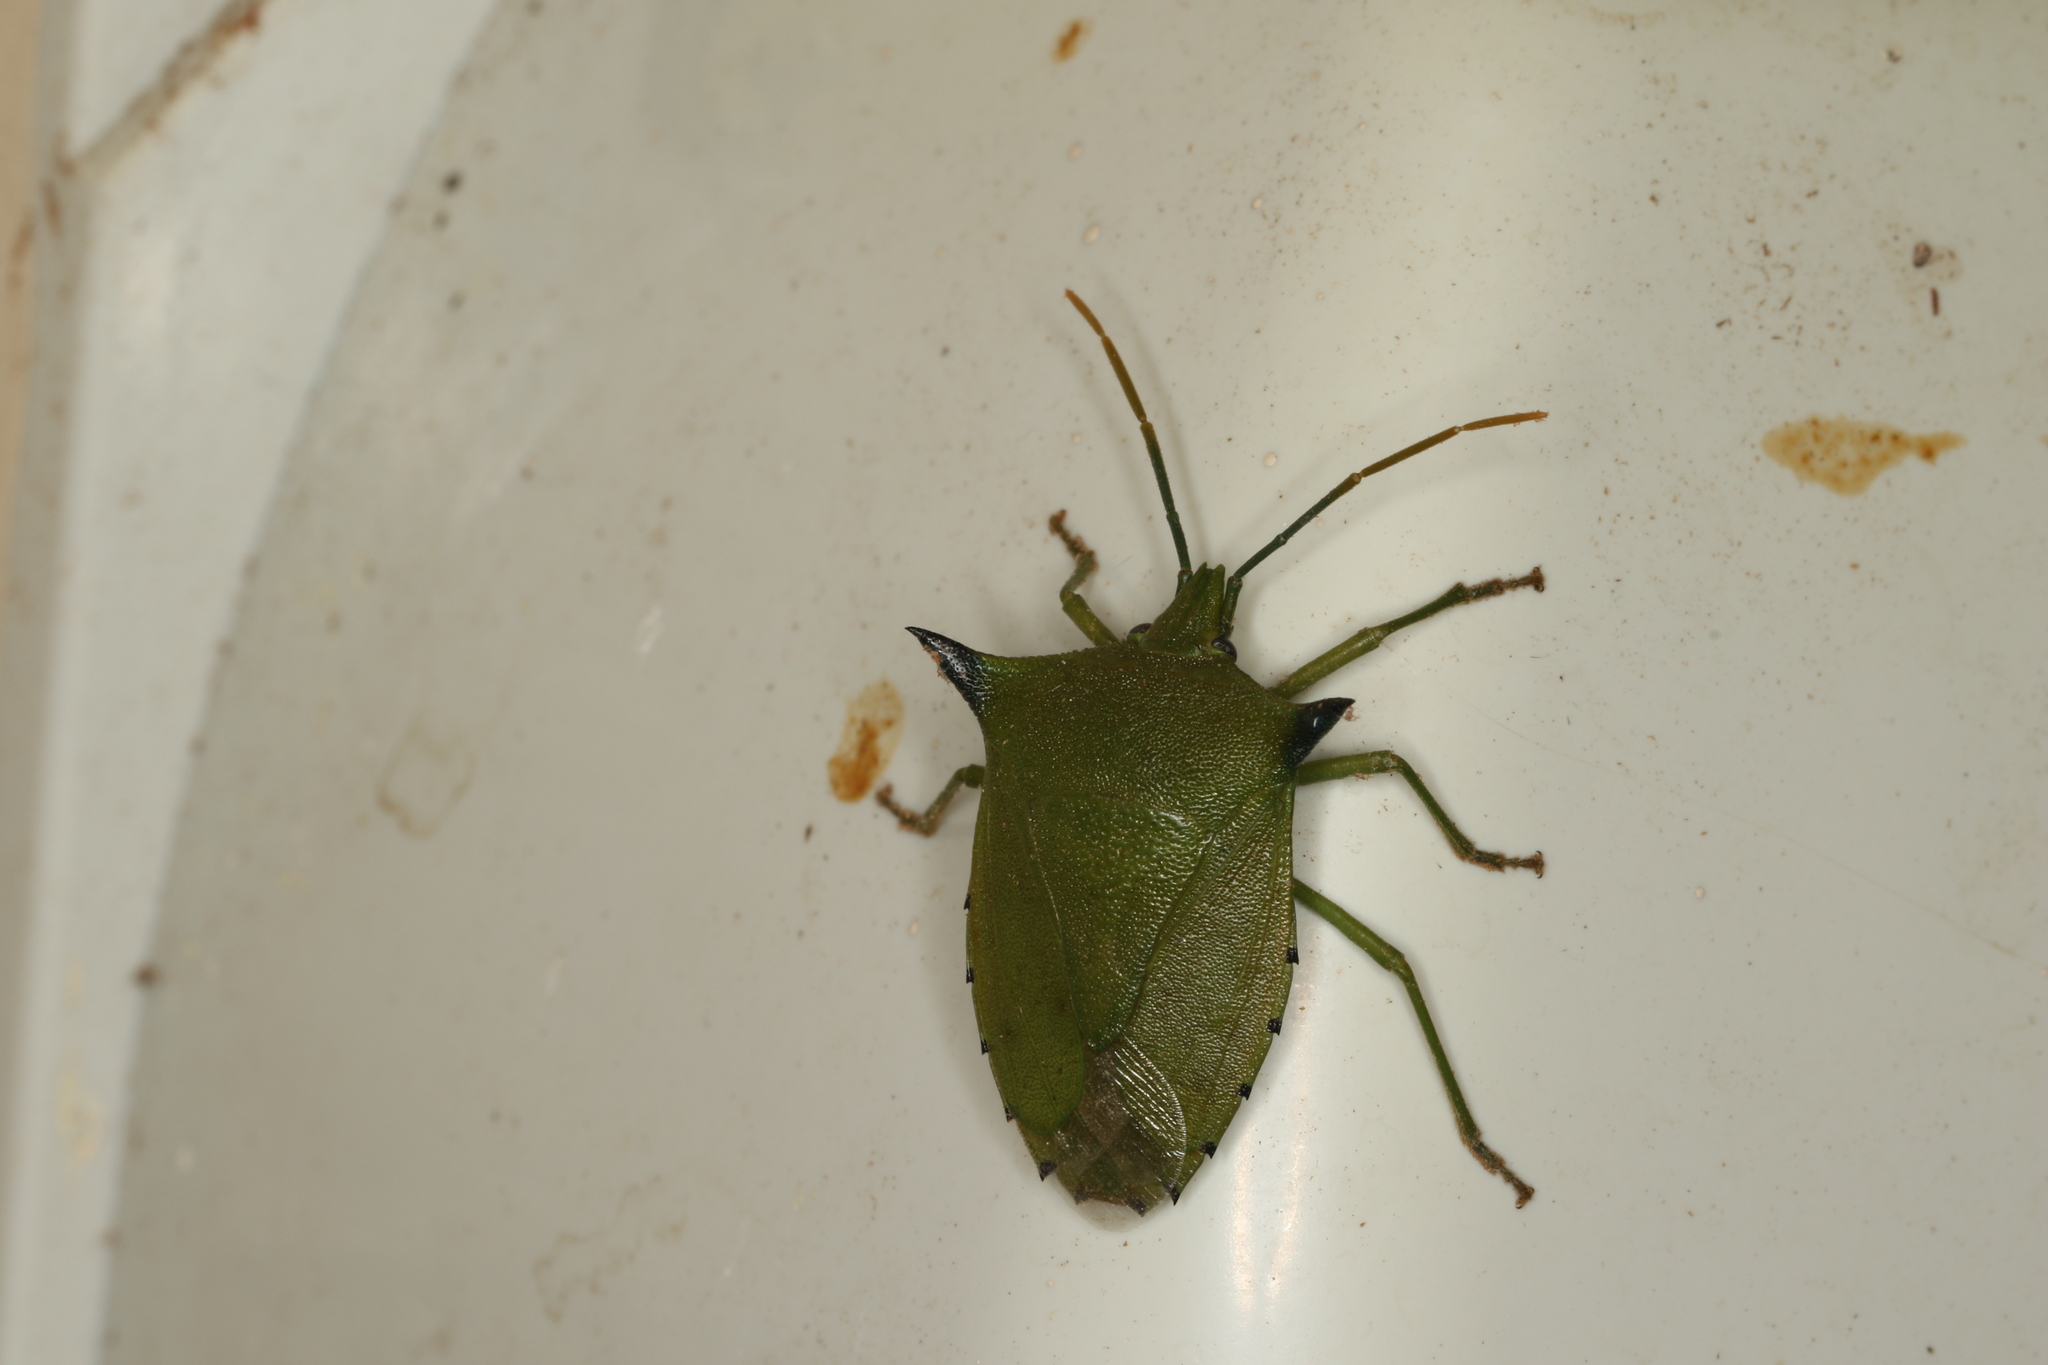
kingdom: Animalia
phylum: Arthropoda
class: Insecta
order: Hemiptera
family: Pentatomidae
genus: Biprorulus
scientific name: Biprorulus
